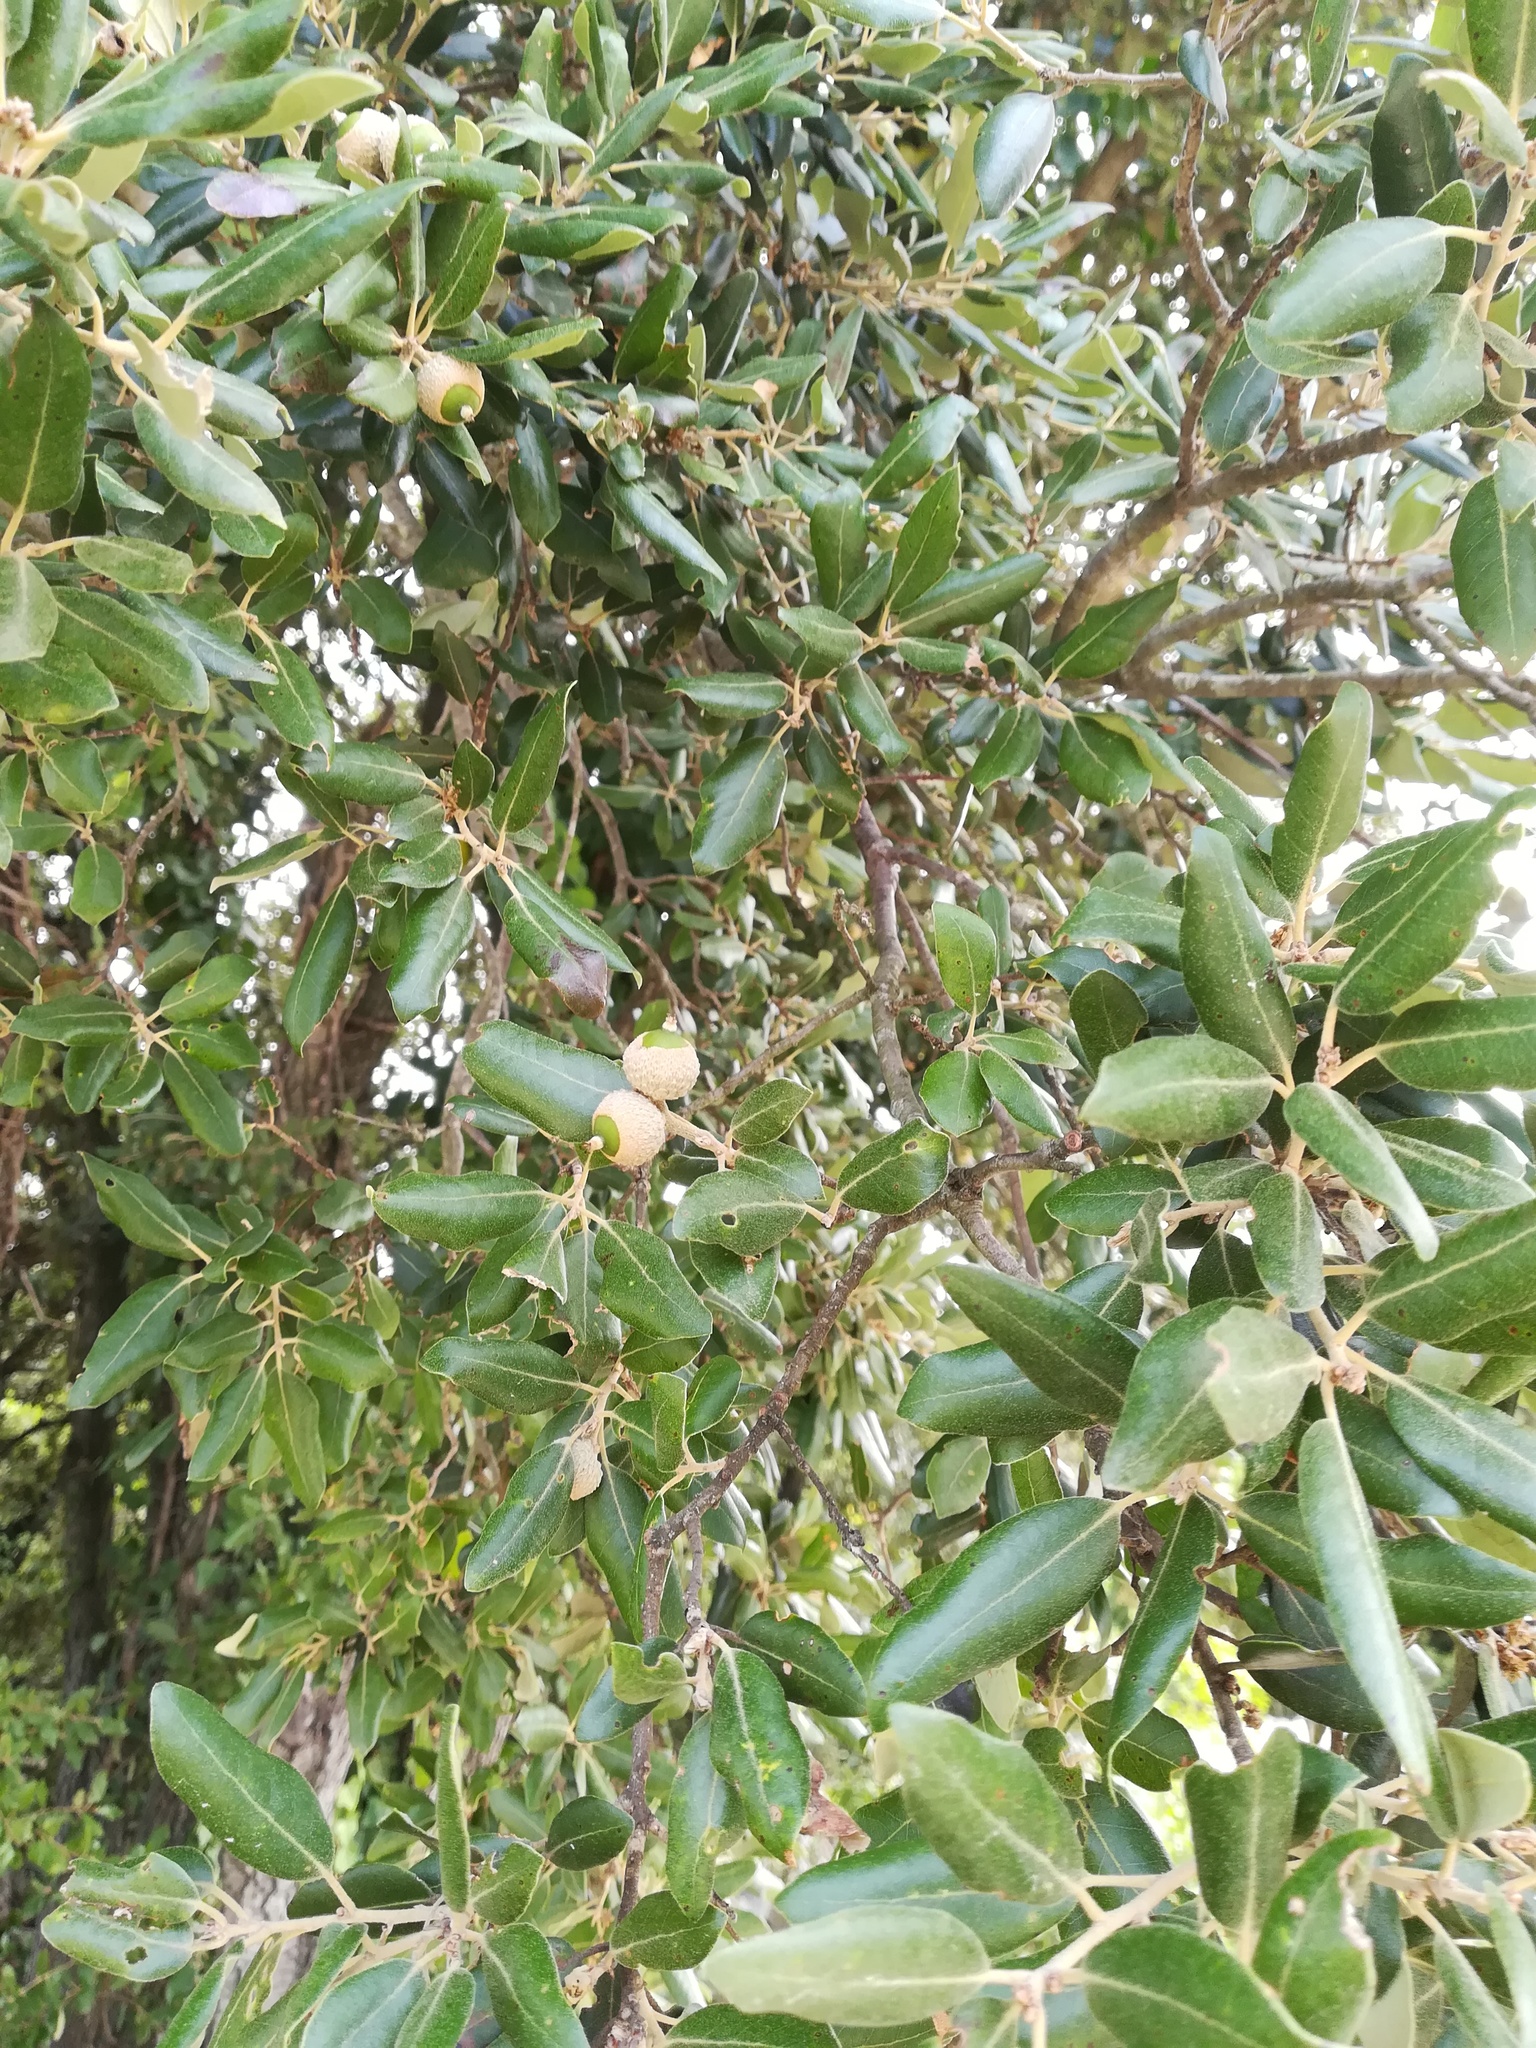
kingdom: Plantae
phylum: Tracheophyta
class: Magnoliopsida
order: Fagales
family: Fagaceae
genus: Quercus
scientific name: Quercus ilex
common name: Evergreen oak
